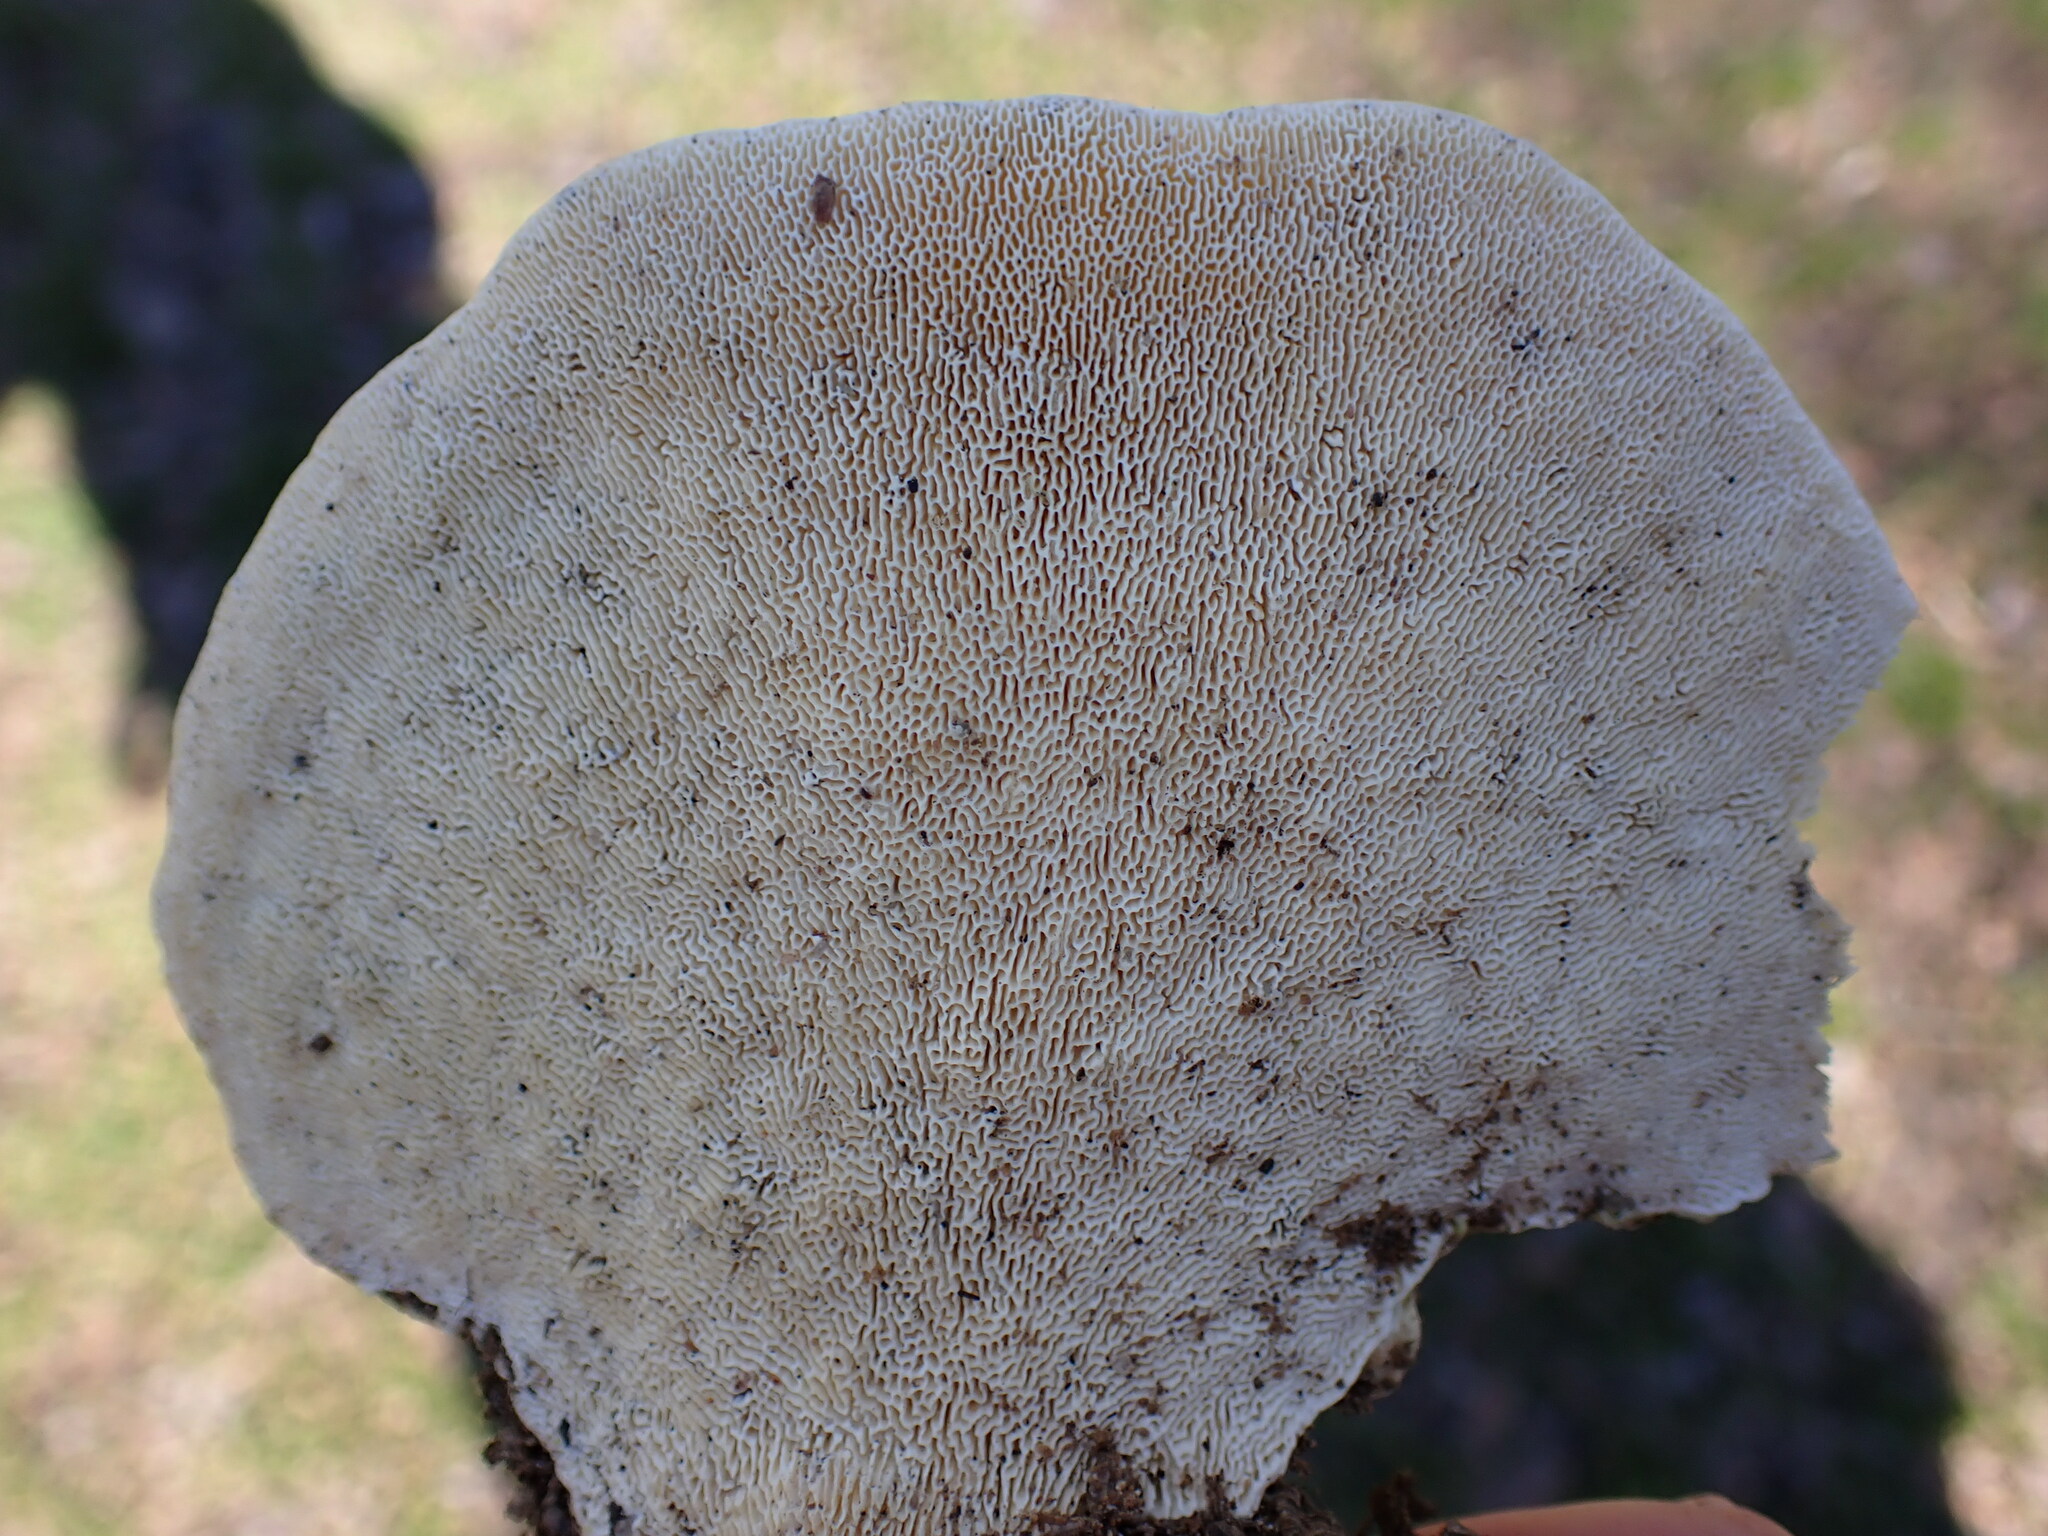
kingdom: Fungi
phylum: Basidiomycota
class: Agaricomycetes
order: Polyporales
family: Polyporaceae
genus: Trametes
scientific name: Trametes gibbosa
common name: Lumpy bracket
